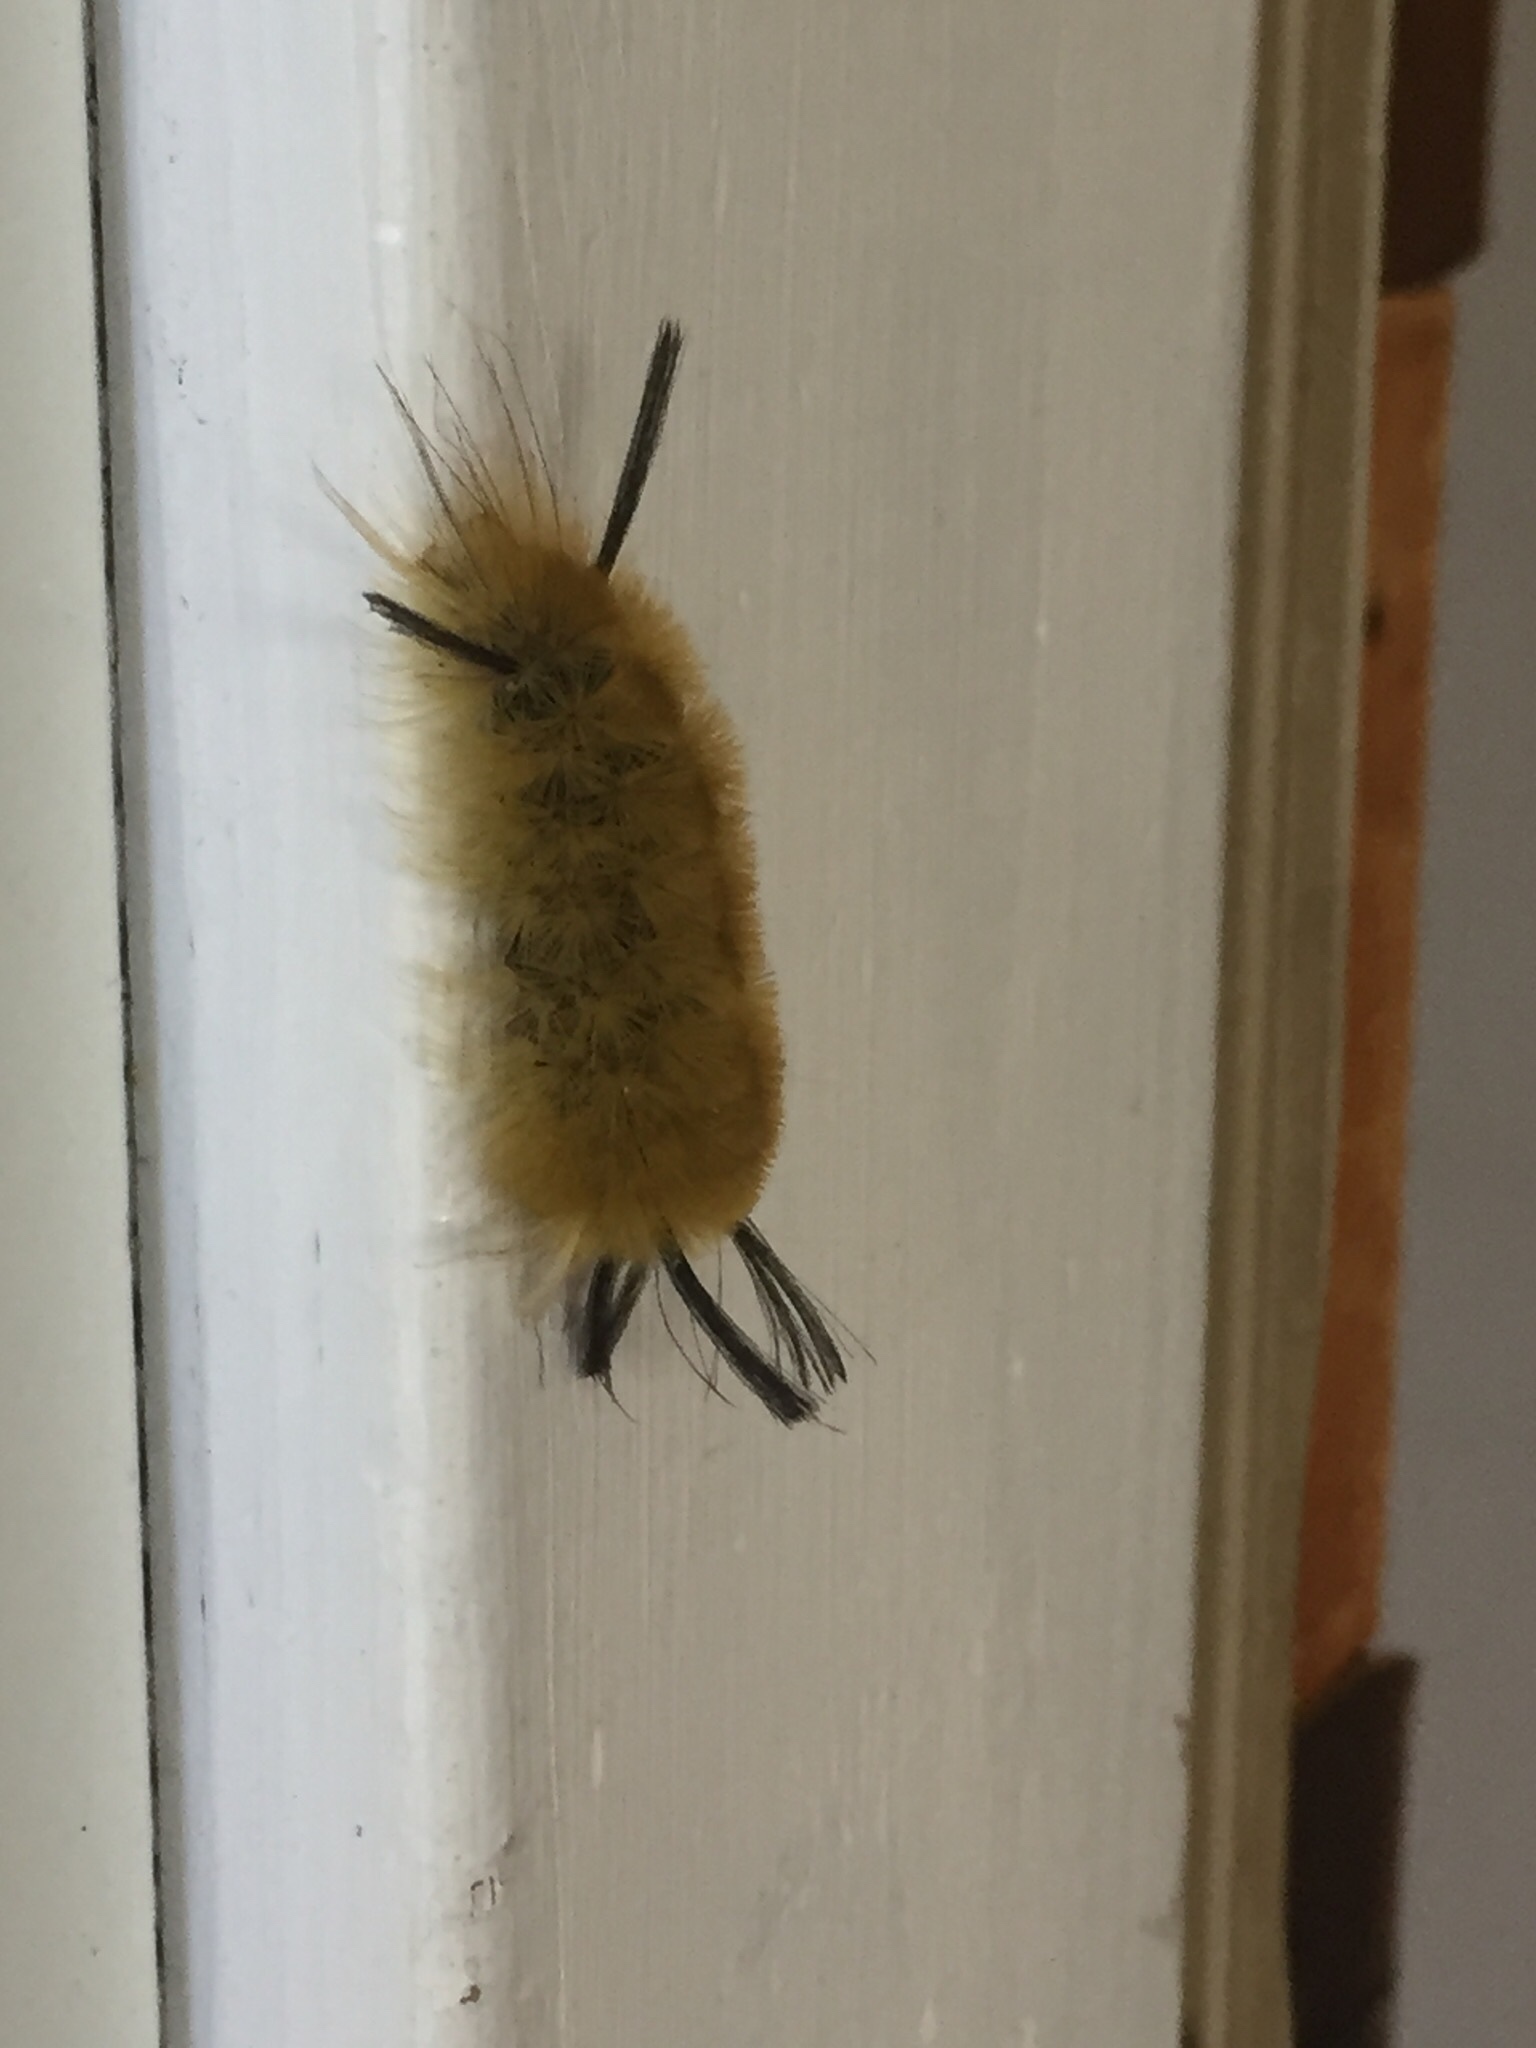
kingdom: Animalia
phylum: Arthropoda
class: Insecta
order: Lepidoptera
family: Erebidae
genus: Halysidota
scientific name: Halysidota tessellaris
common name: Banded tussock moth
